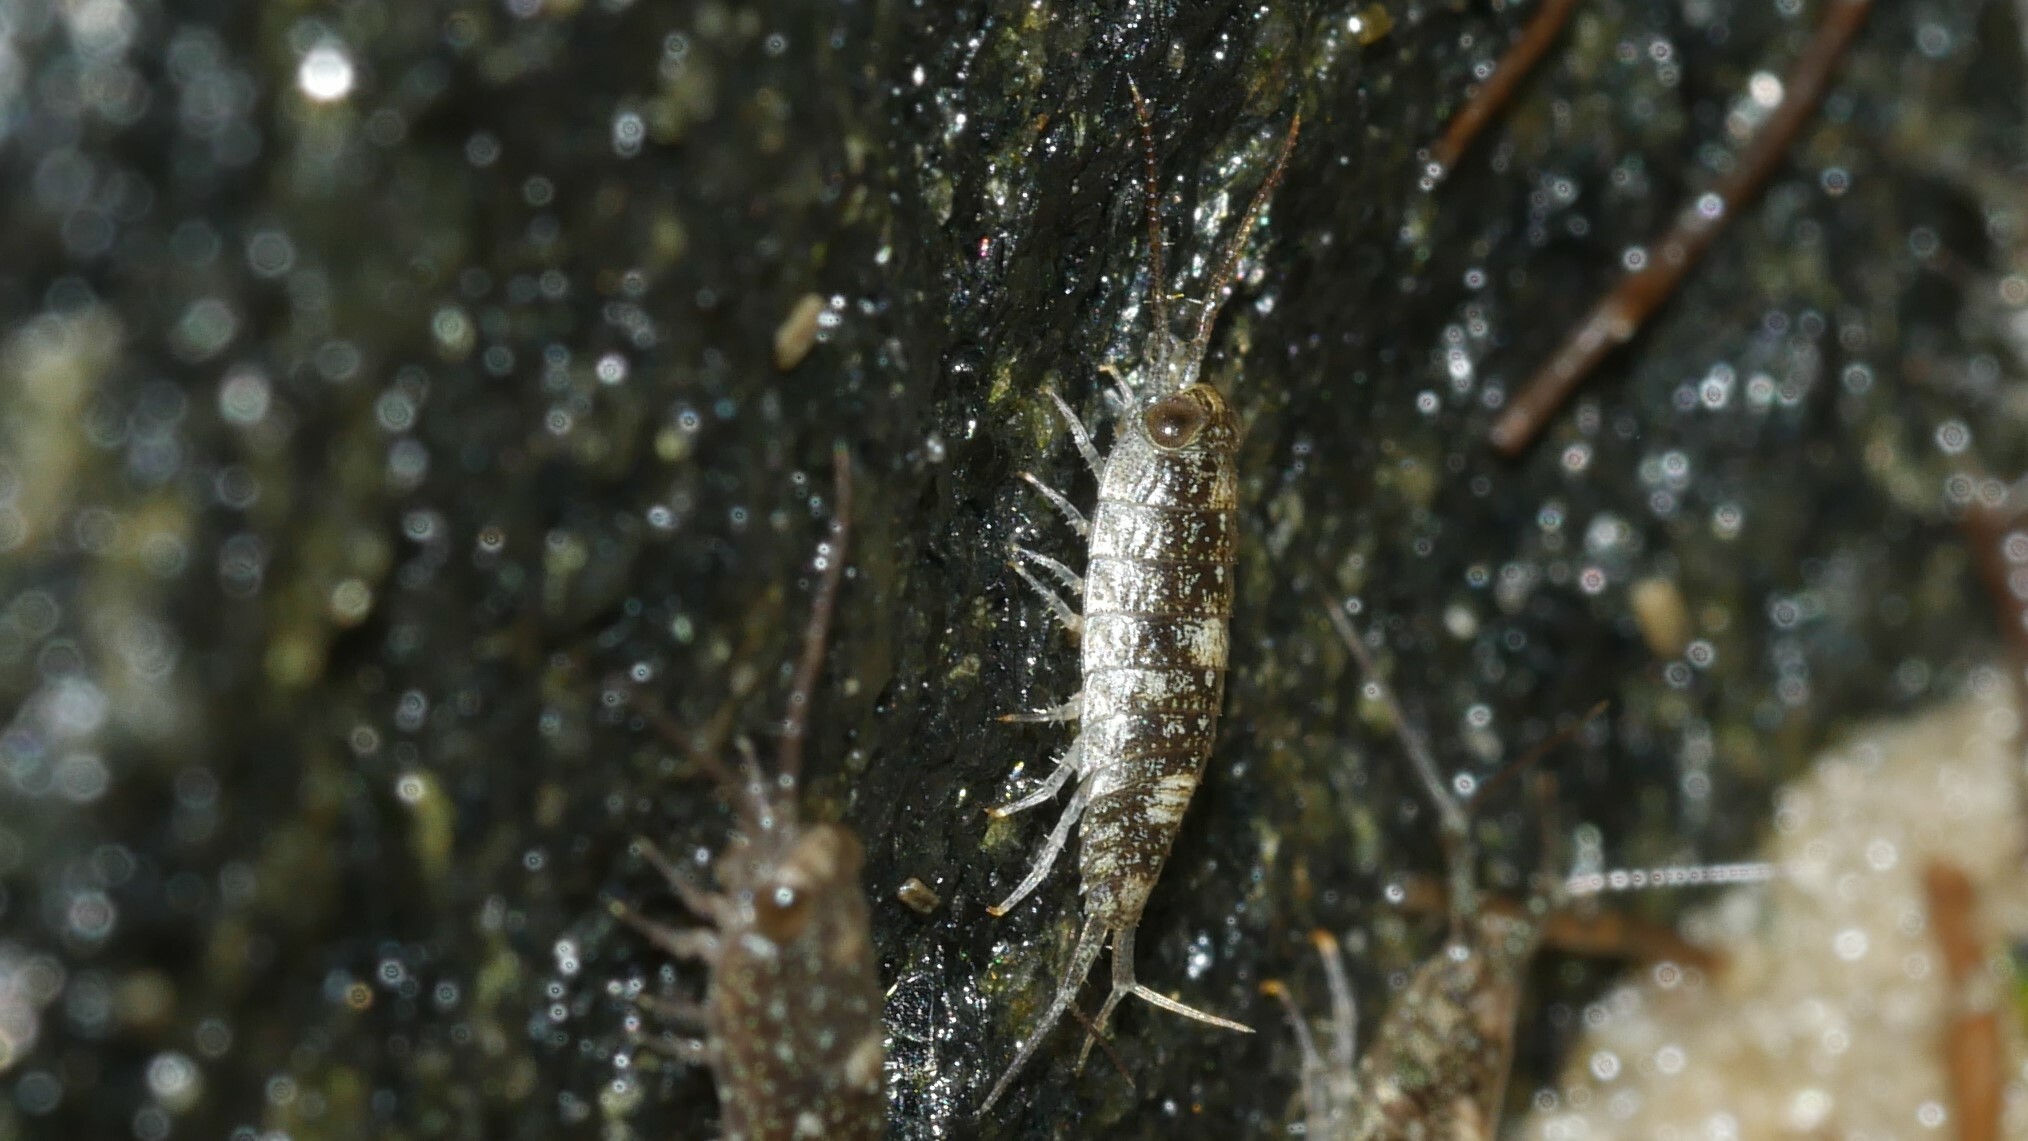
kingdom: Animalia
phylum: Arthropoda
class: Malacostraca
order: Isopoda
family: Ligiidae
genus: Ligia
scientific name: Ligia exotica
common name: Wharf roach
